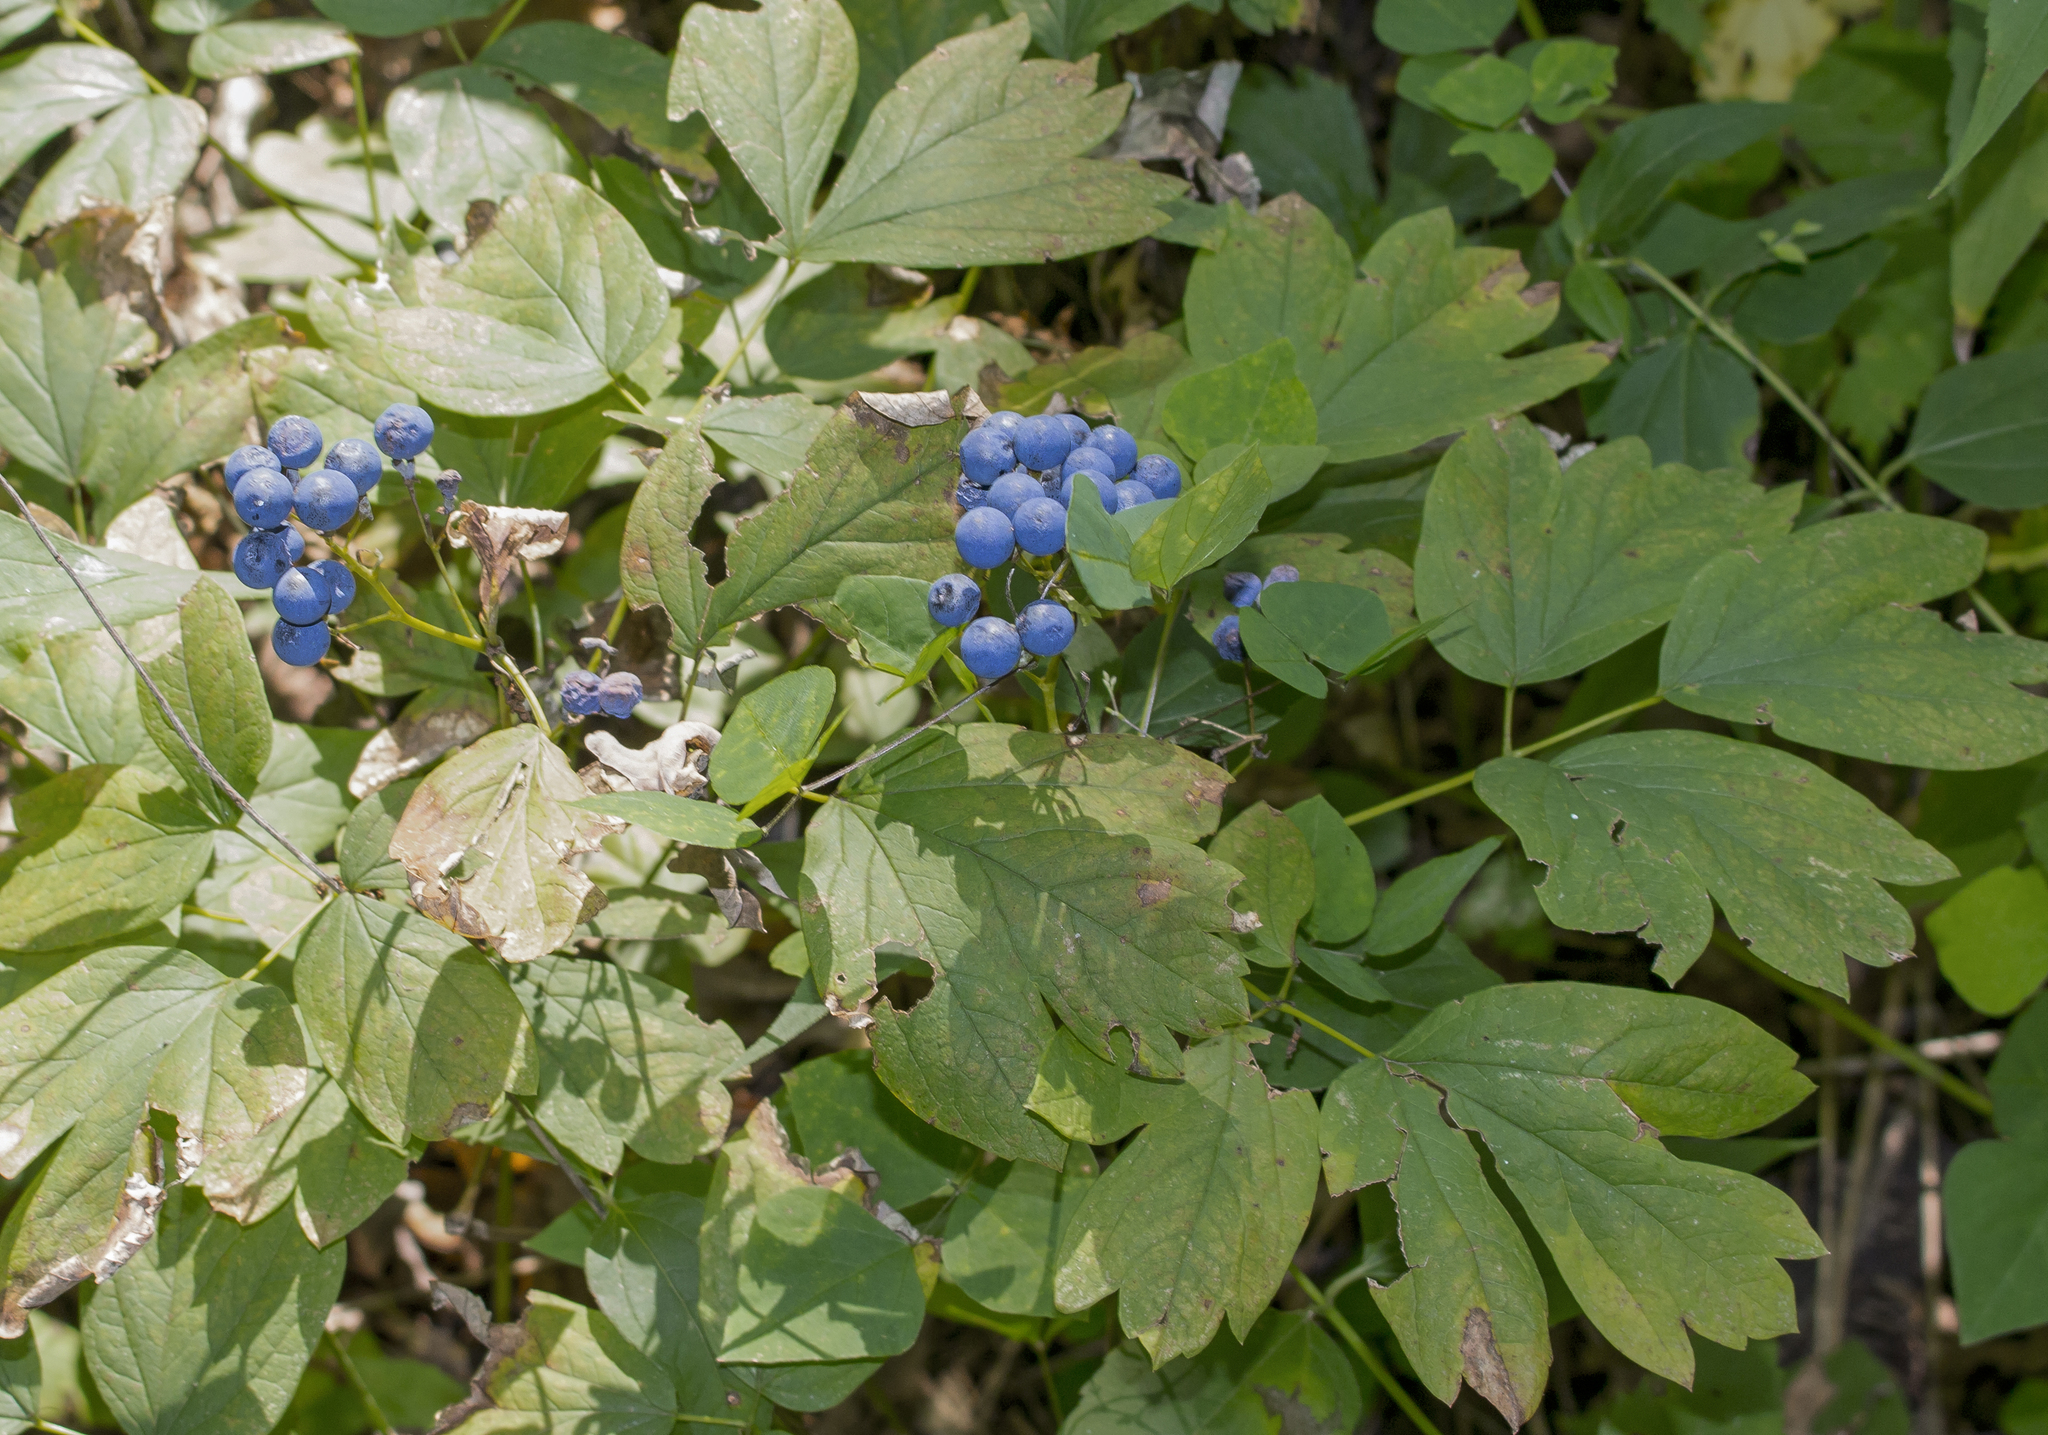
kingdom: Plantae
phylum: Tracheophyta
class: Magnoliopsida
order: Ranunculales
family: Berberidaceae
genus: Caulophyllum
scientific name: Caulophyllum thalictroides
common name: Blue cohosh
